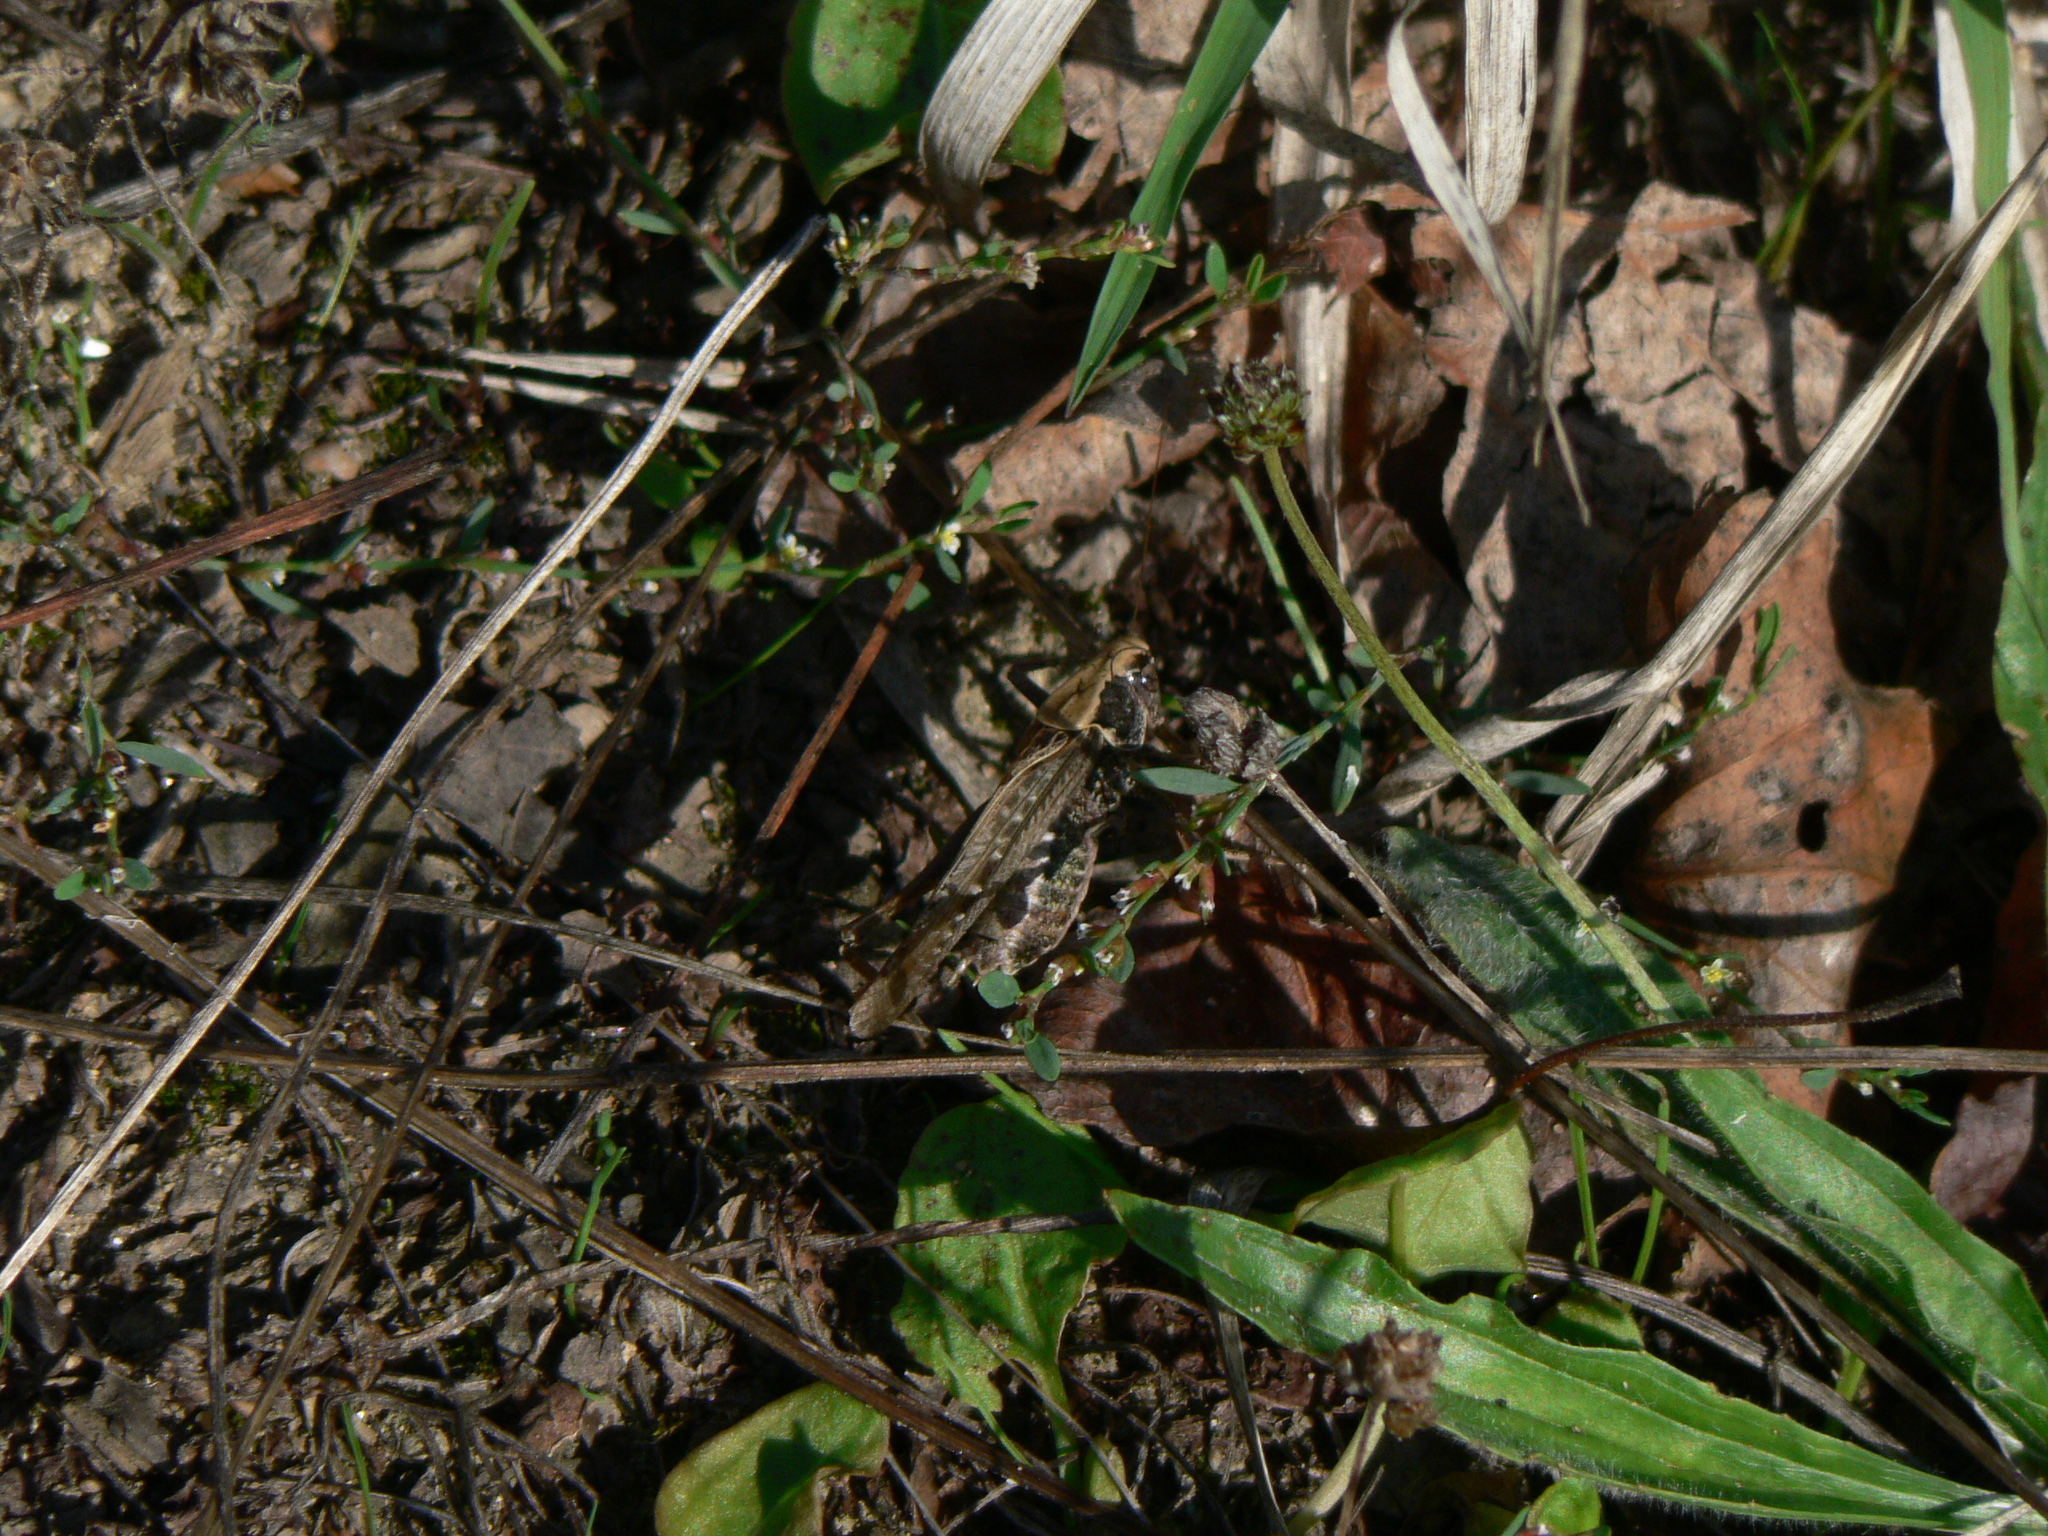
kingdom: Animalia
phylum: Arthropoda
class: Insecta
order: Orthoptera
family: Tettigoniidae
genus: Platycleis
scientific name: Platycleis albopunctata
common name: Grey bush-cricket
